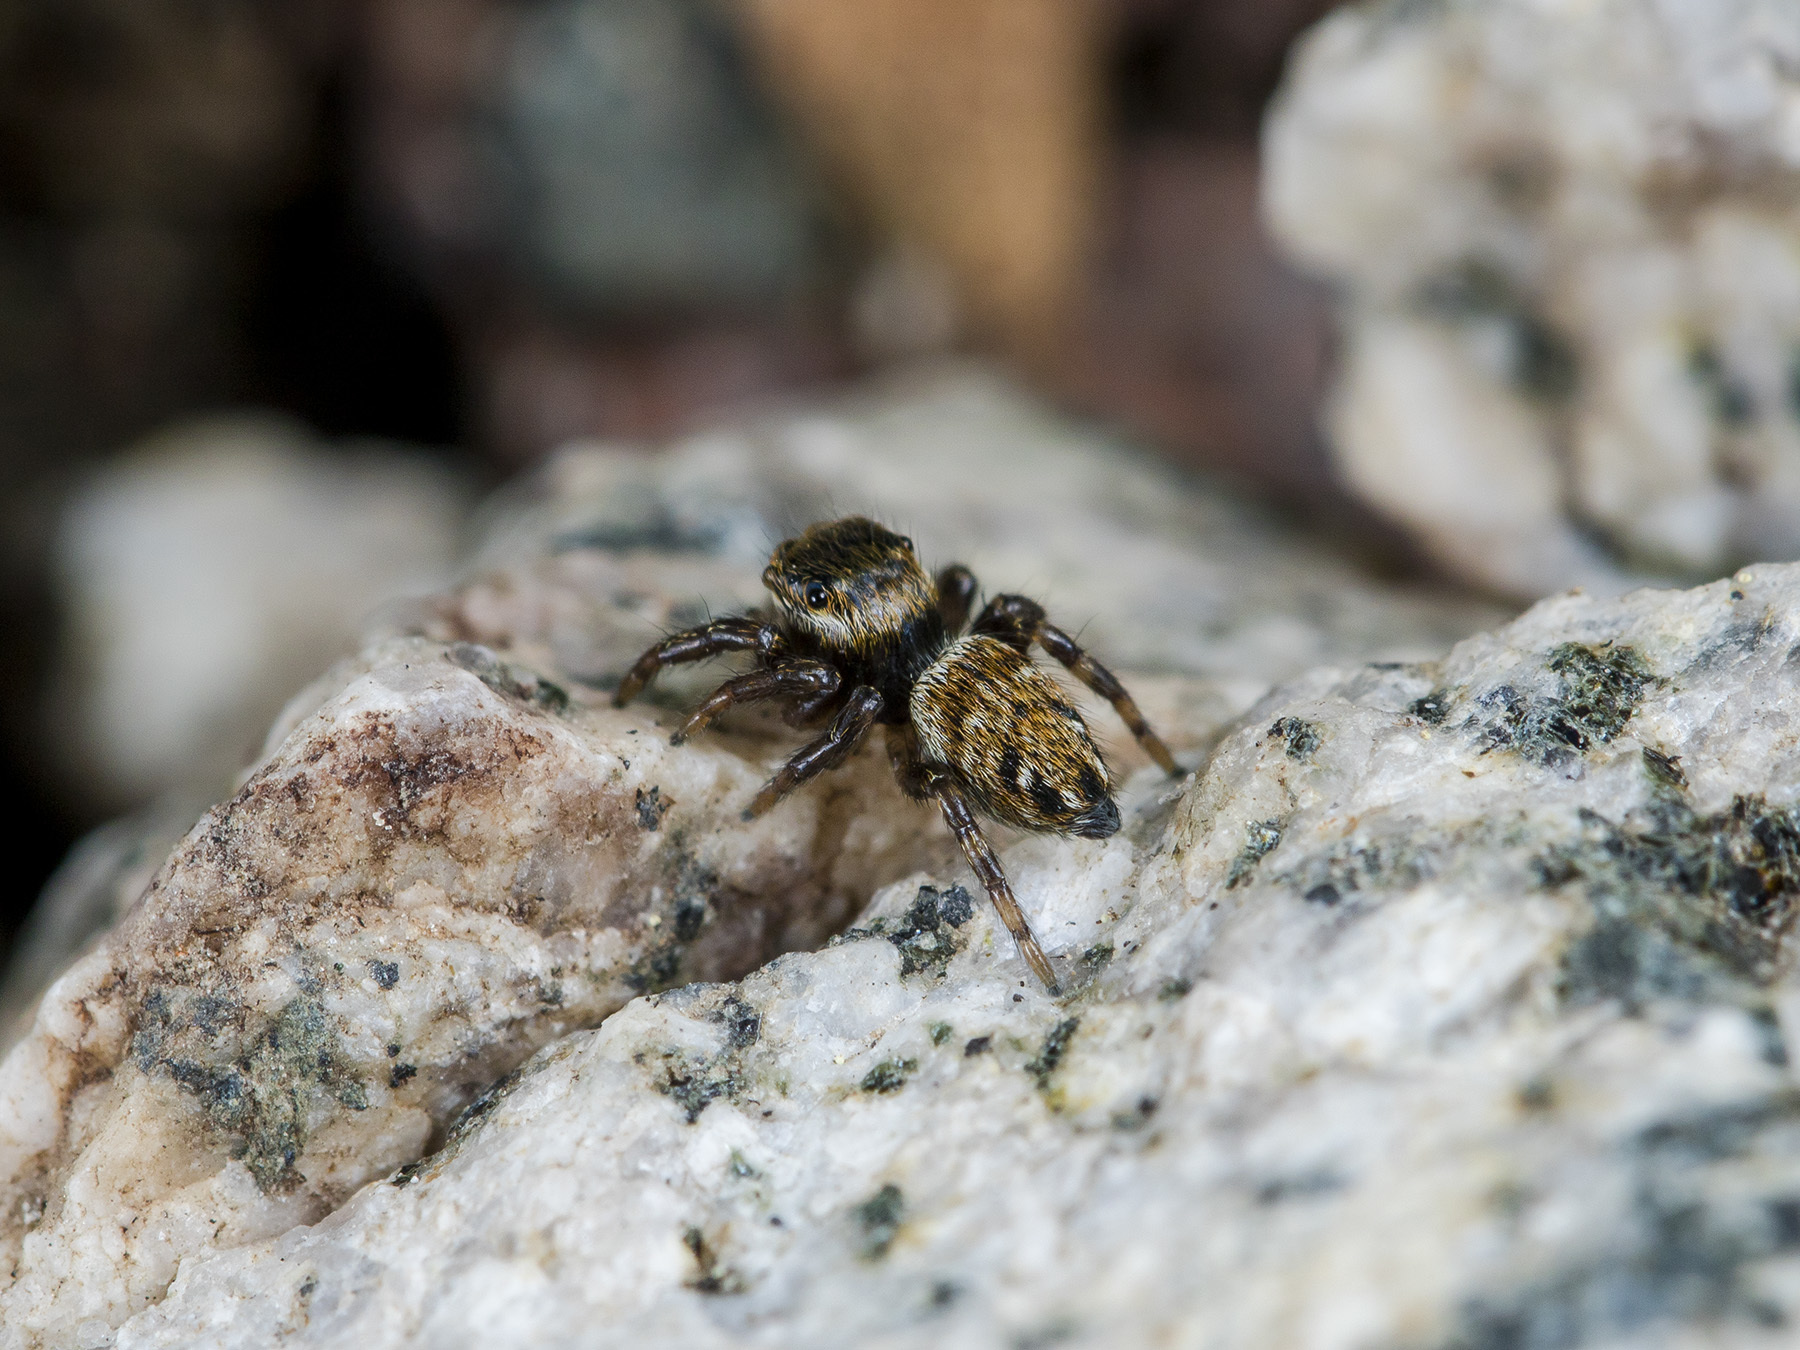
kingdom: Animalia
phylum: Arthropoda
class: Arachnida
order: Araneae
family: Salticidae
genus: Evarcha
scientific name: Evarcha arcuata
